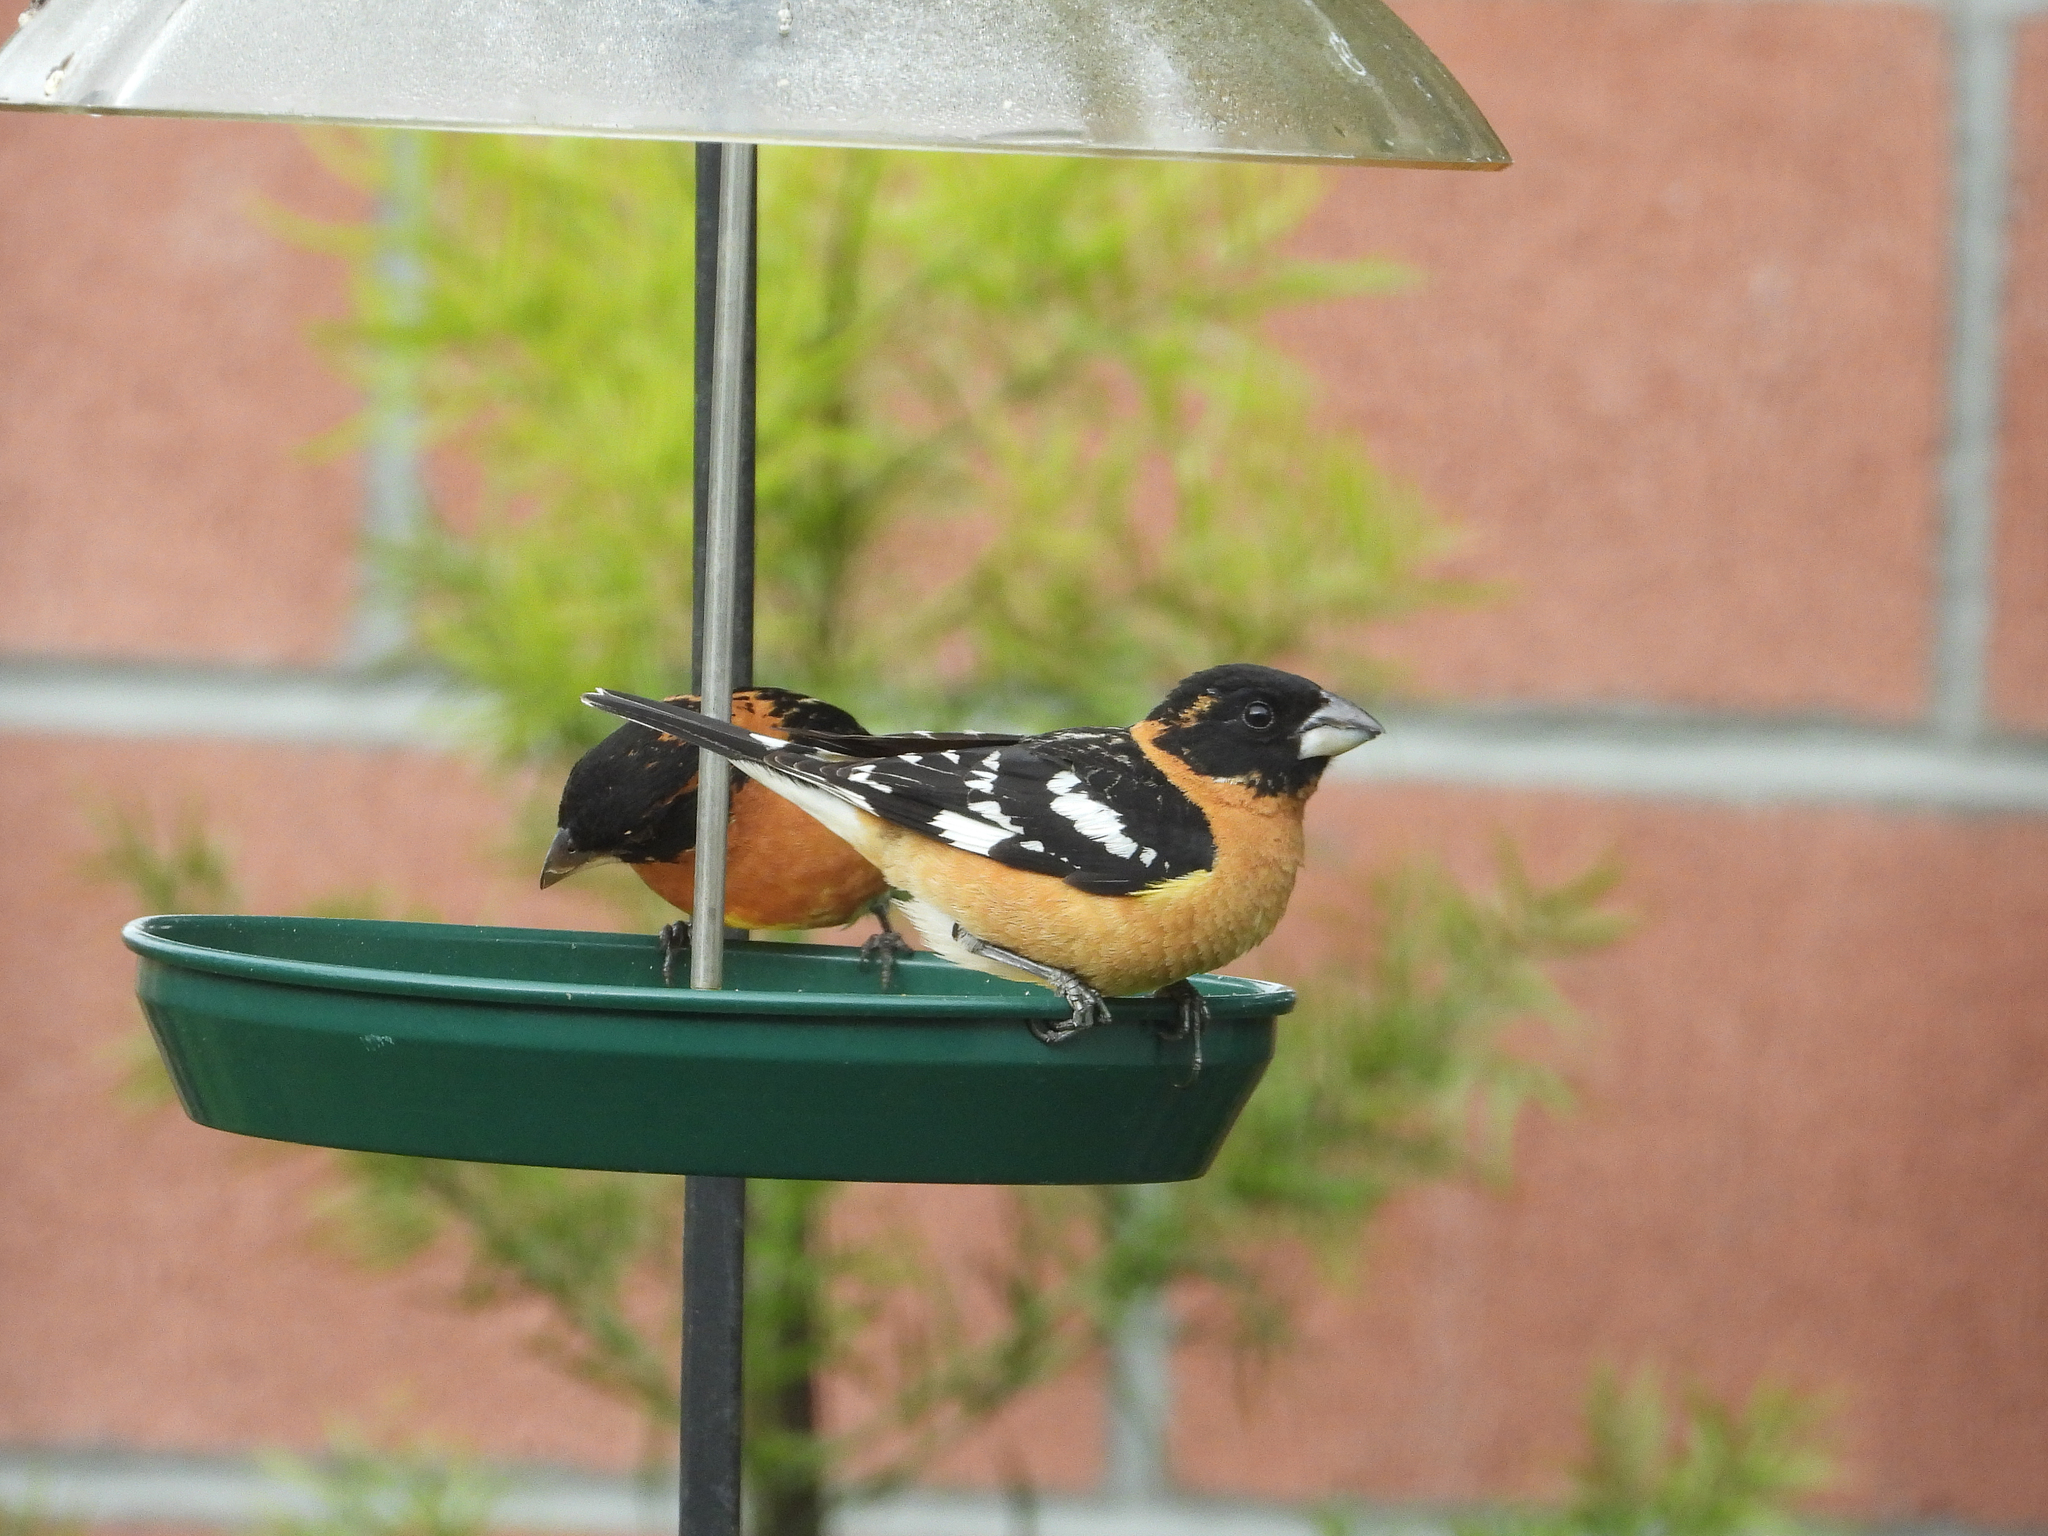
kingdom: Animalia
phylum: Chordata
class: Aves
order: Passeriformes
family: Cardinalidae
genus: Pheucticus
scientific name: Pheucticus melanocephalus
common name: Black-headed grosbeak
